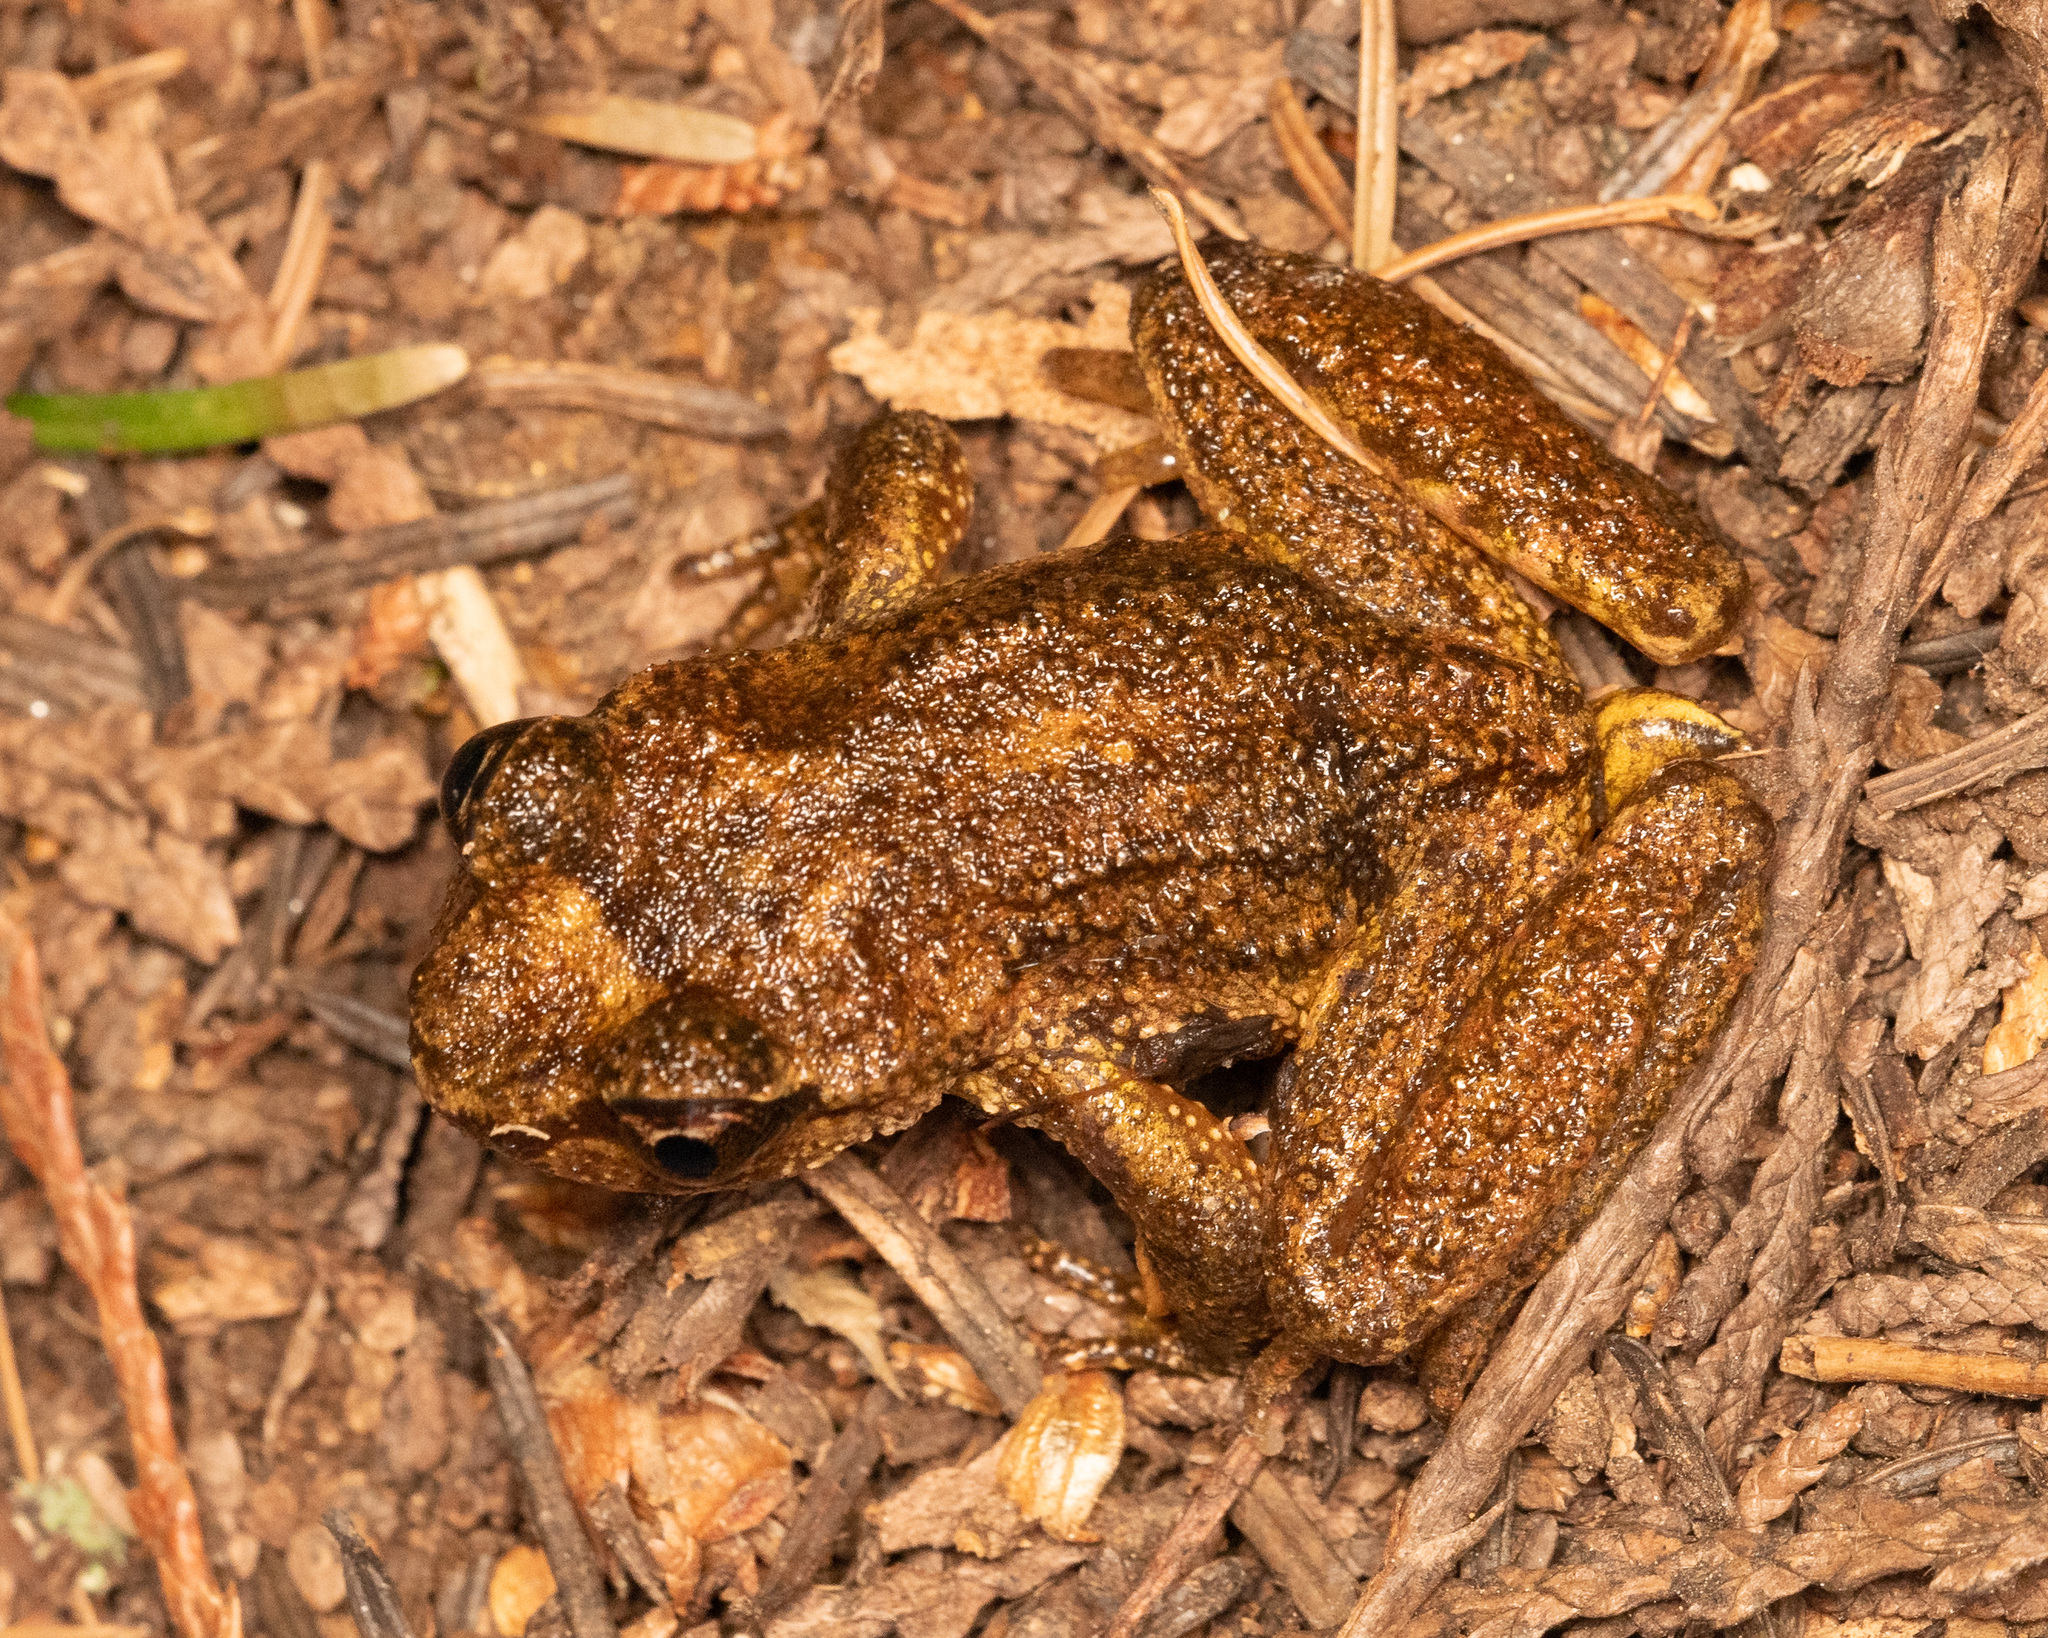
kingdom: Animalia
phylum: Chordata
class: Amphibia
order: Anura
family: Ascaphidae
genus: Ascaphus
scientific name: Ascaphus montanus
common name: Rocky mountain tailed frog
